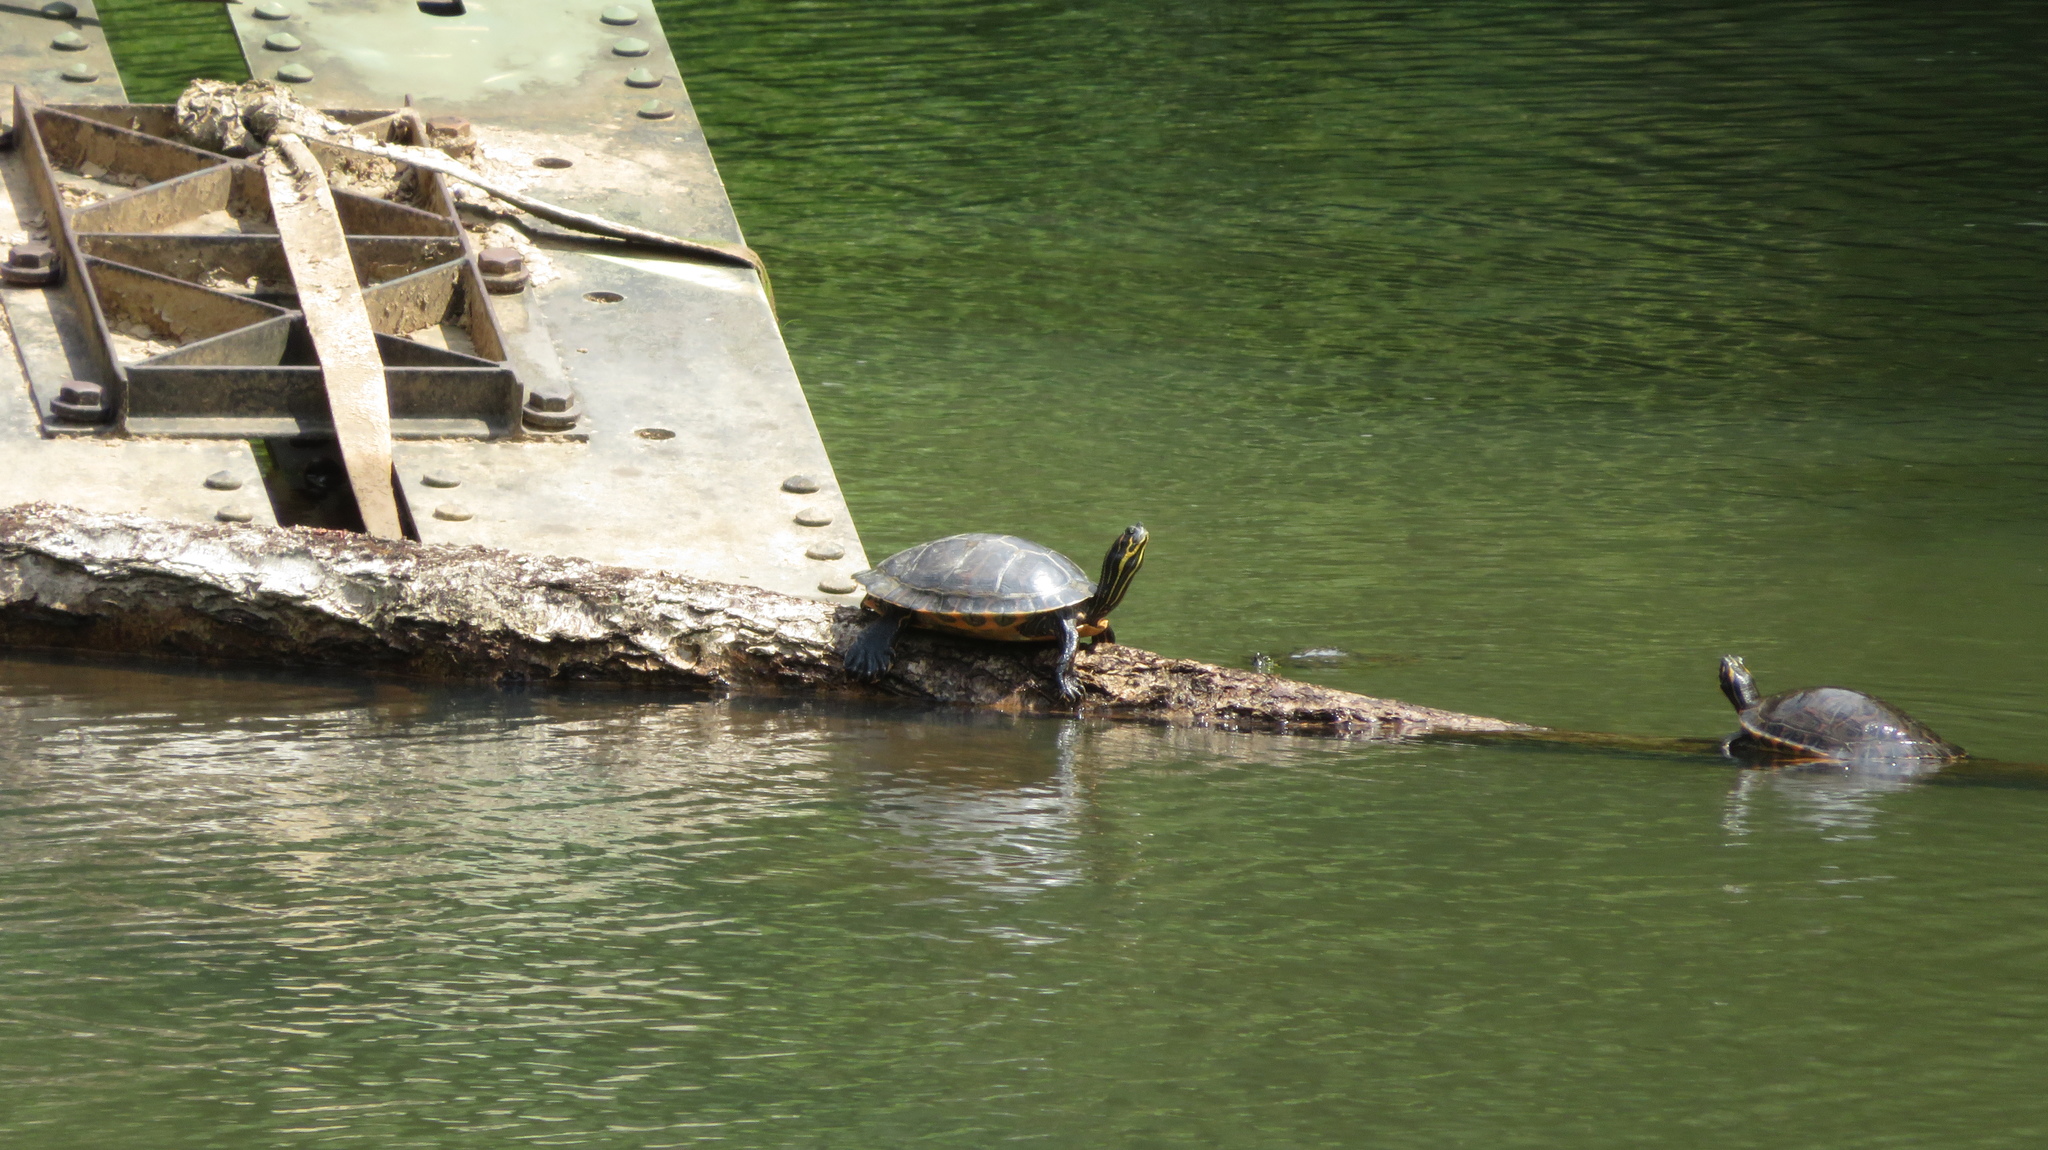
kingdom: Animalia
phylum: Chordata
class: Testudines
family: Emydidae
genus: Pseudemys
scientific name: Pseudemys concinna
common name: Eastern river cooter
